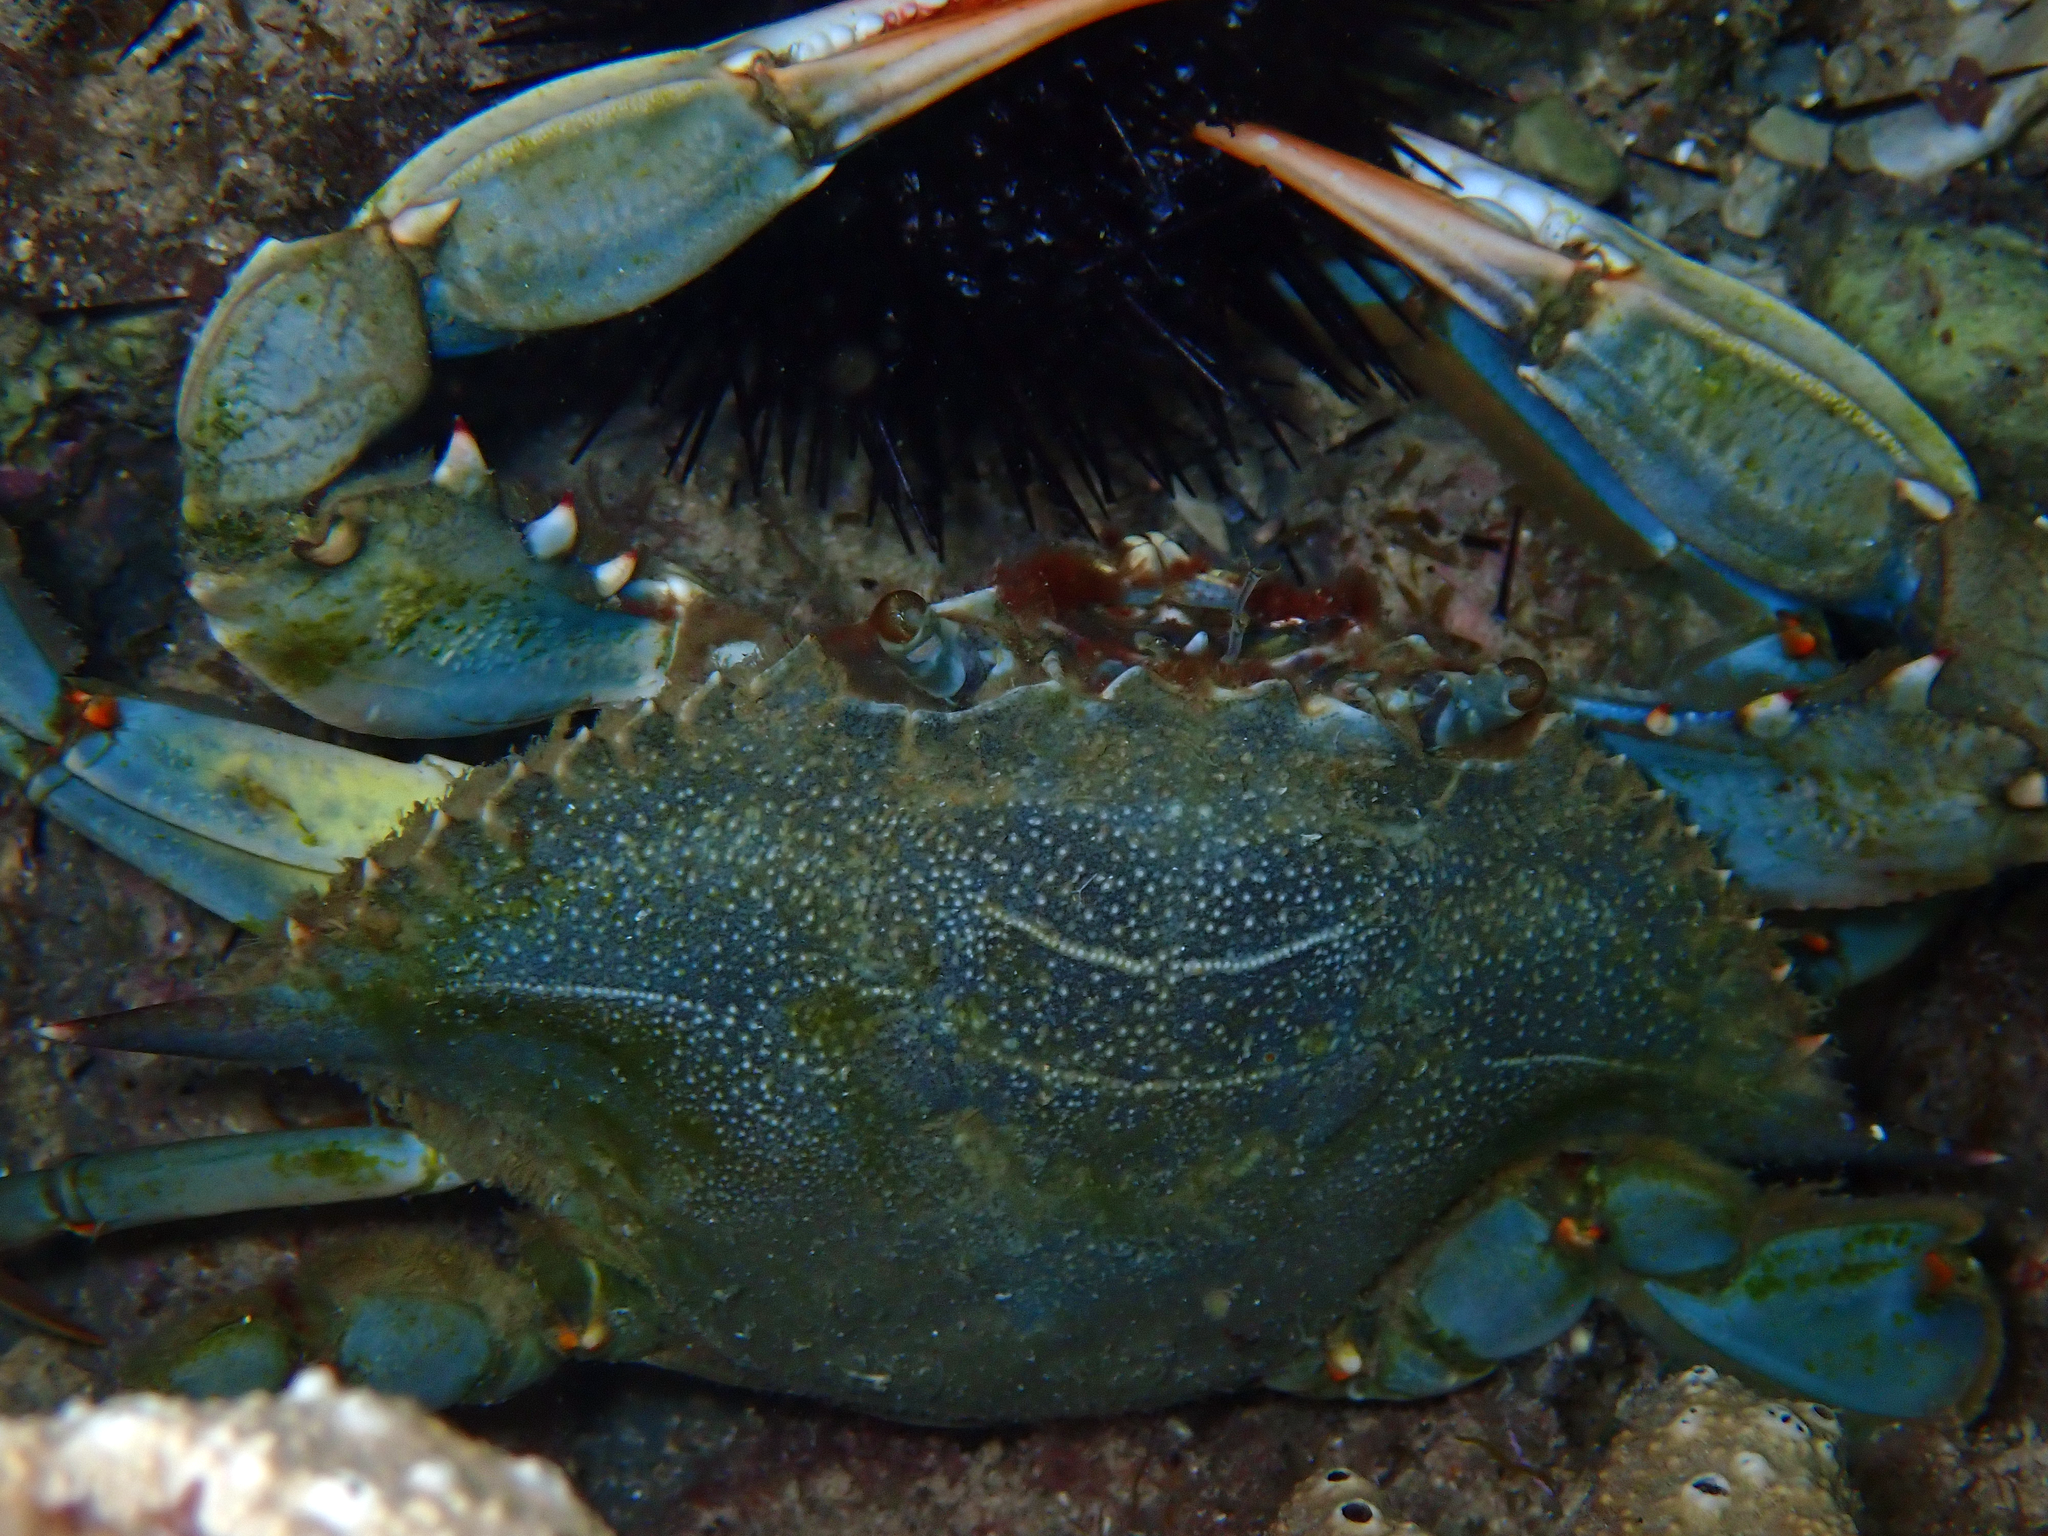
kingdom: Animalia
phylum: Arthropoda
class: Malacostraca
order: Decapoda
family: Portunidae
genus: Callinectes
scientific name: Callinectes sapidus
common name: Blue crab
